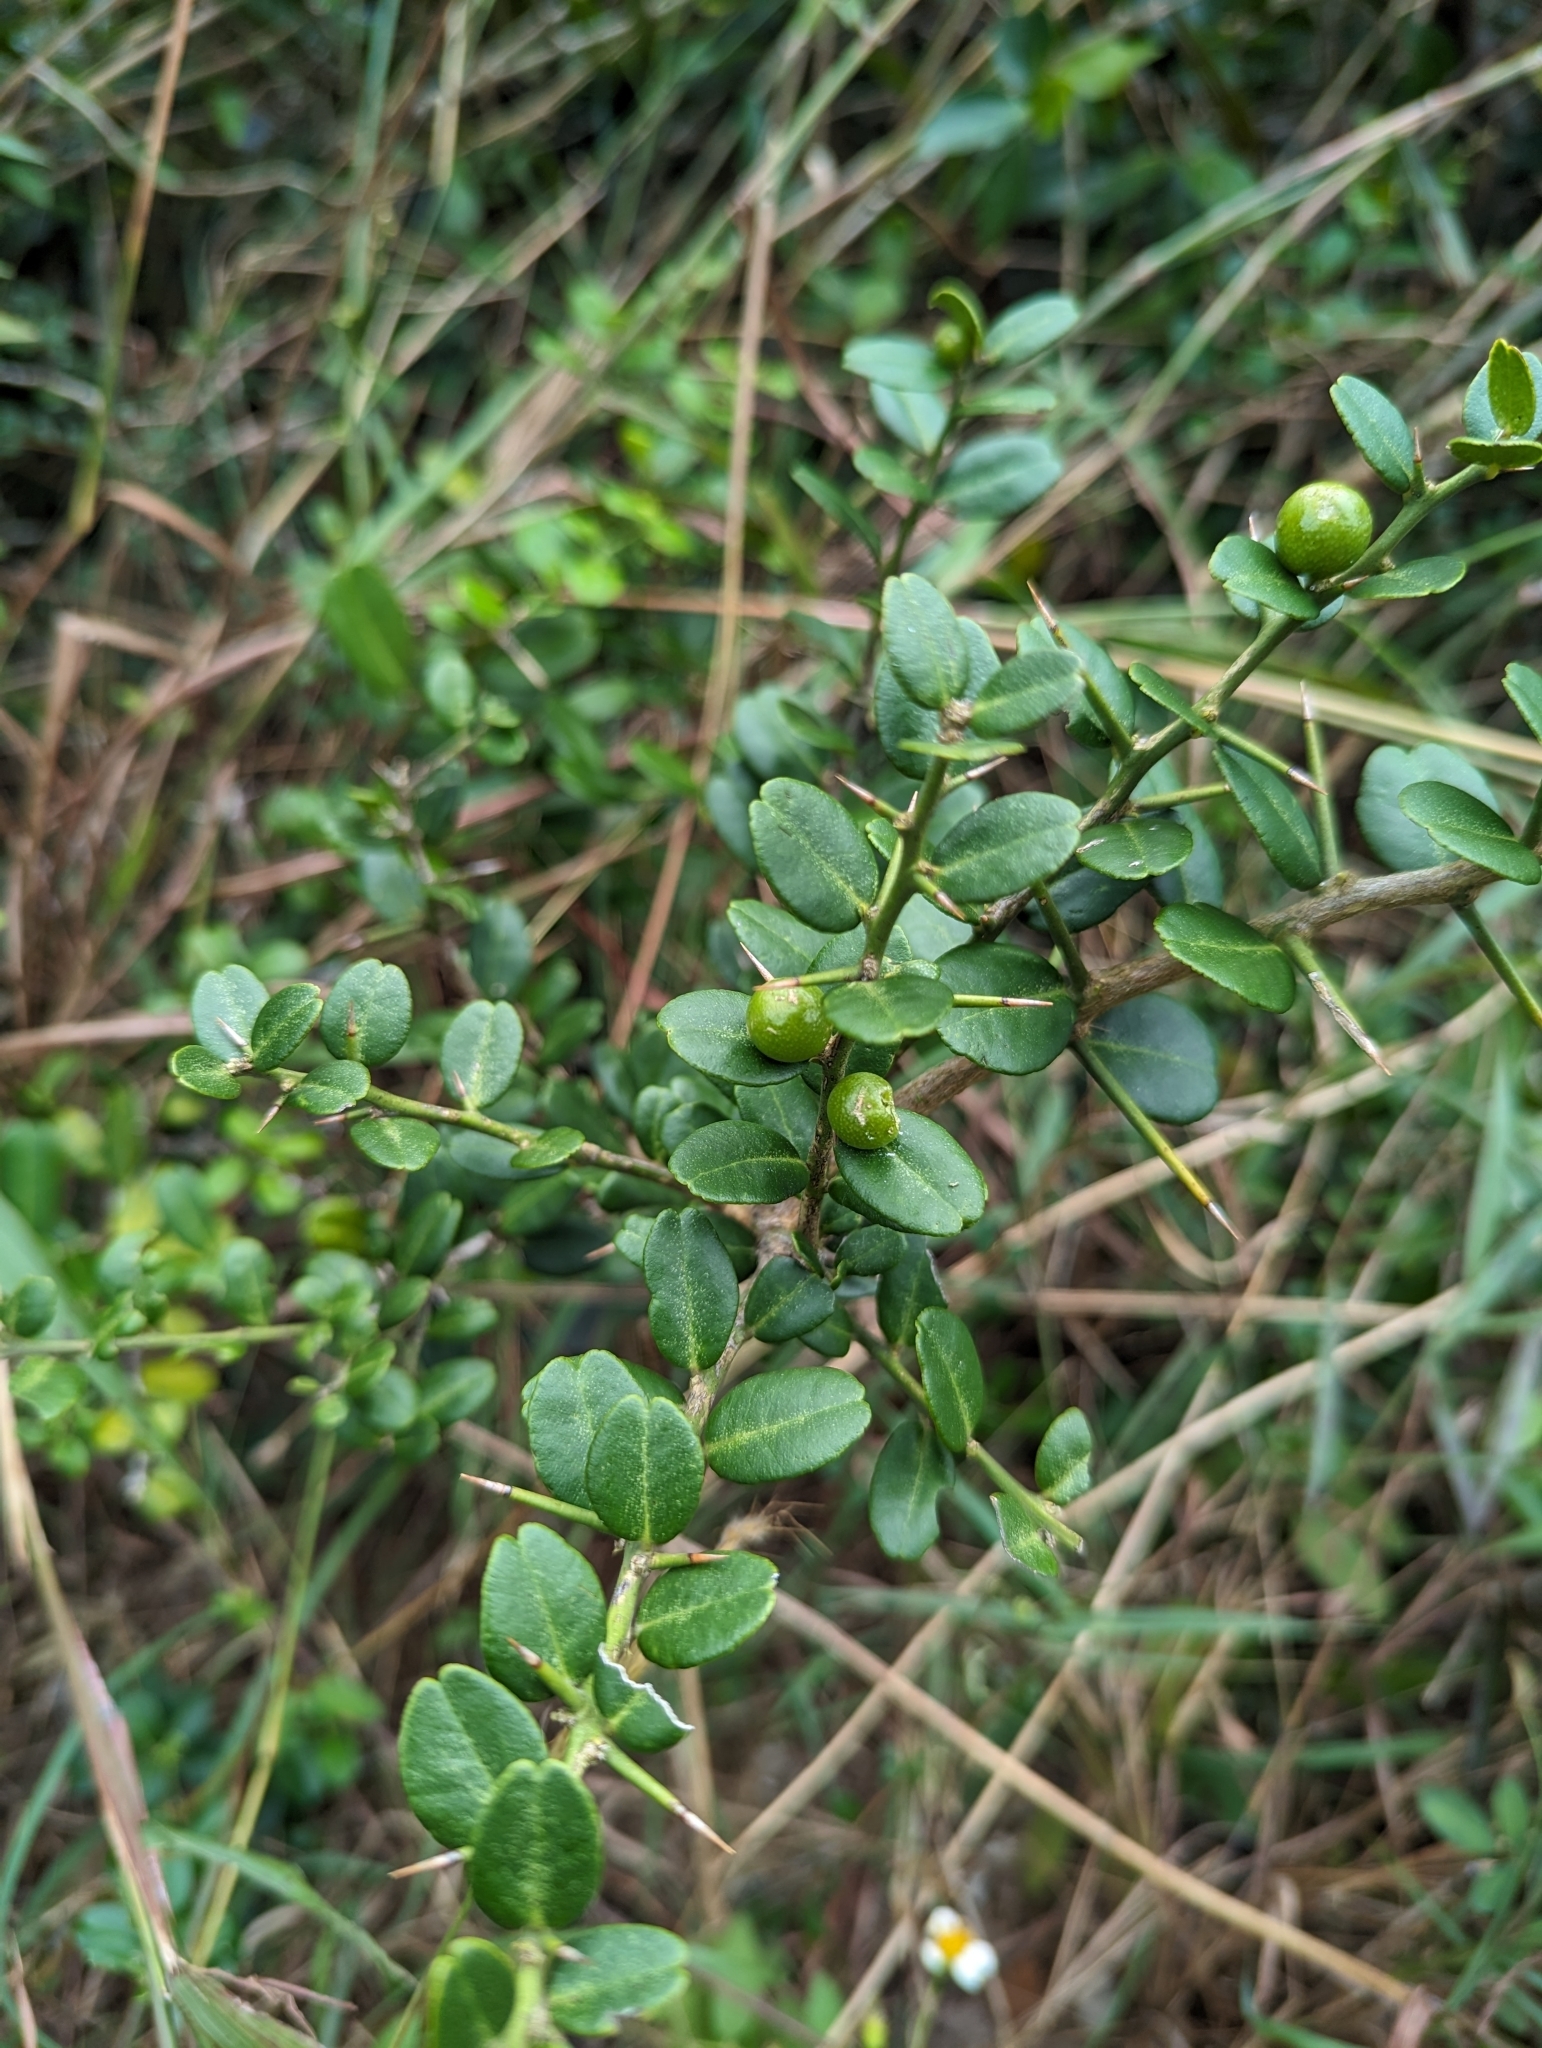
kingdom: Plantae
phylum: Tracheophyta
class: Magnoliopsida
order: Sapindales
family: Rutaceae
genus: Atalantia
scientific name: Atalantia buxifolia
